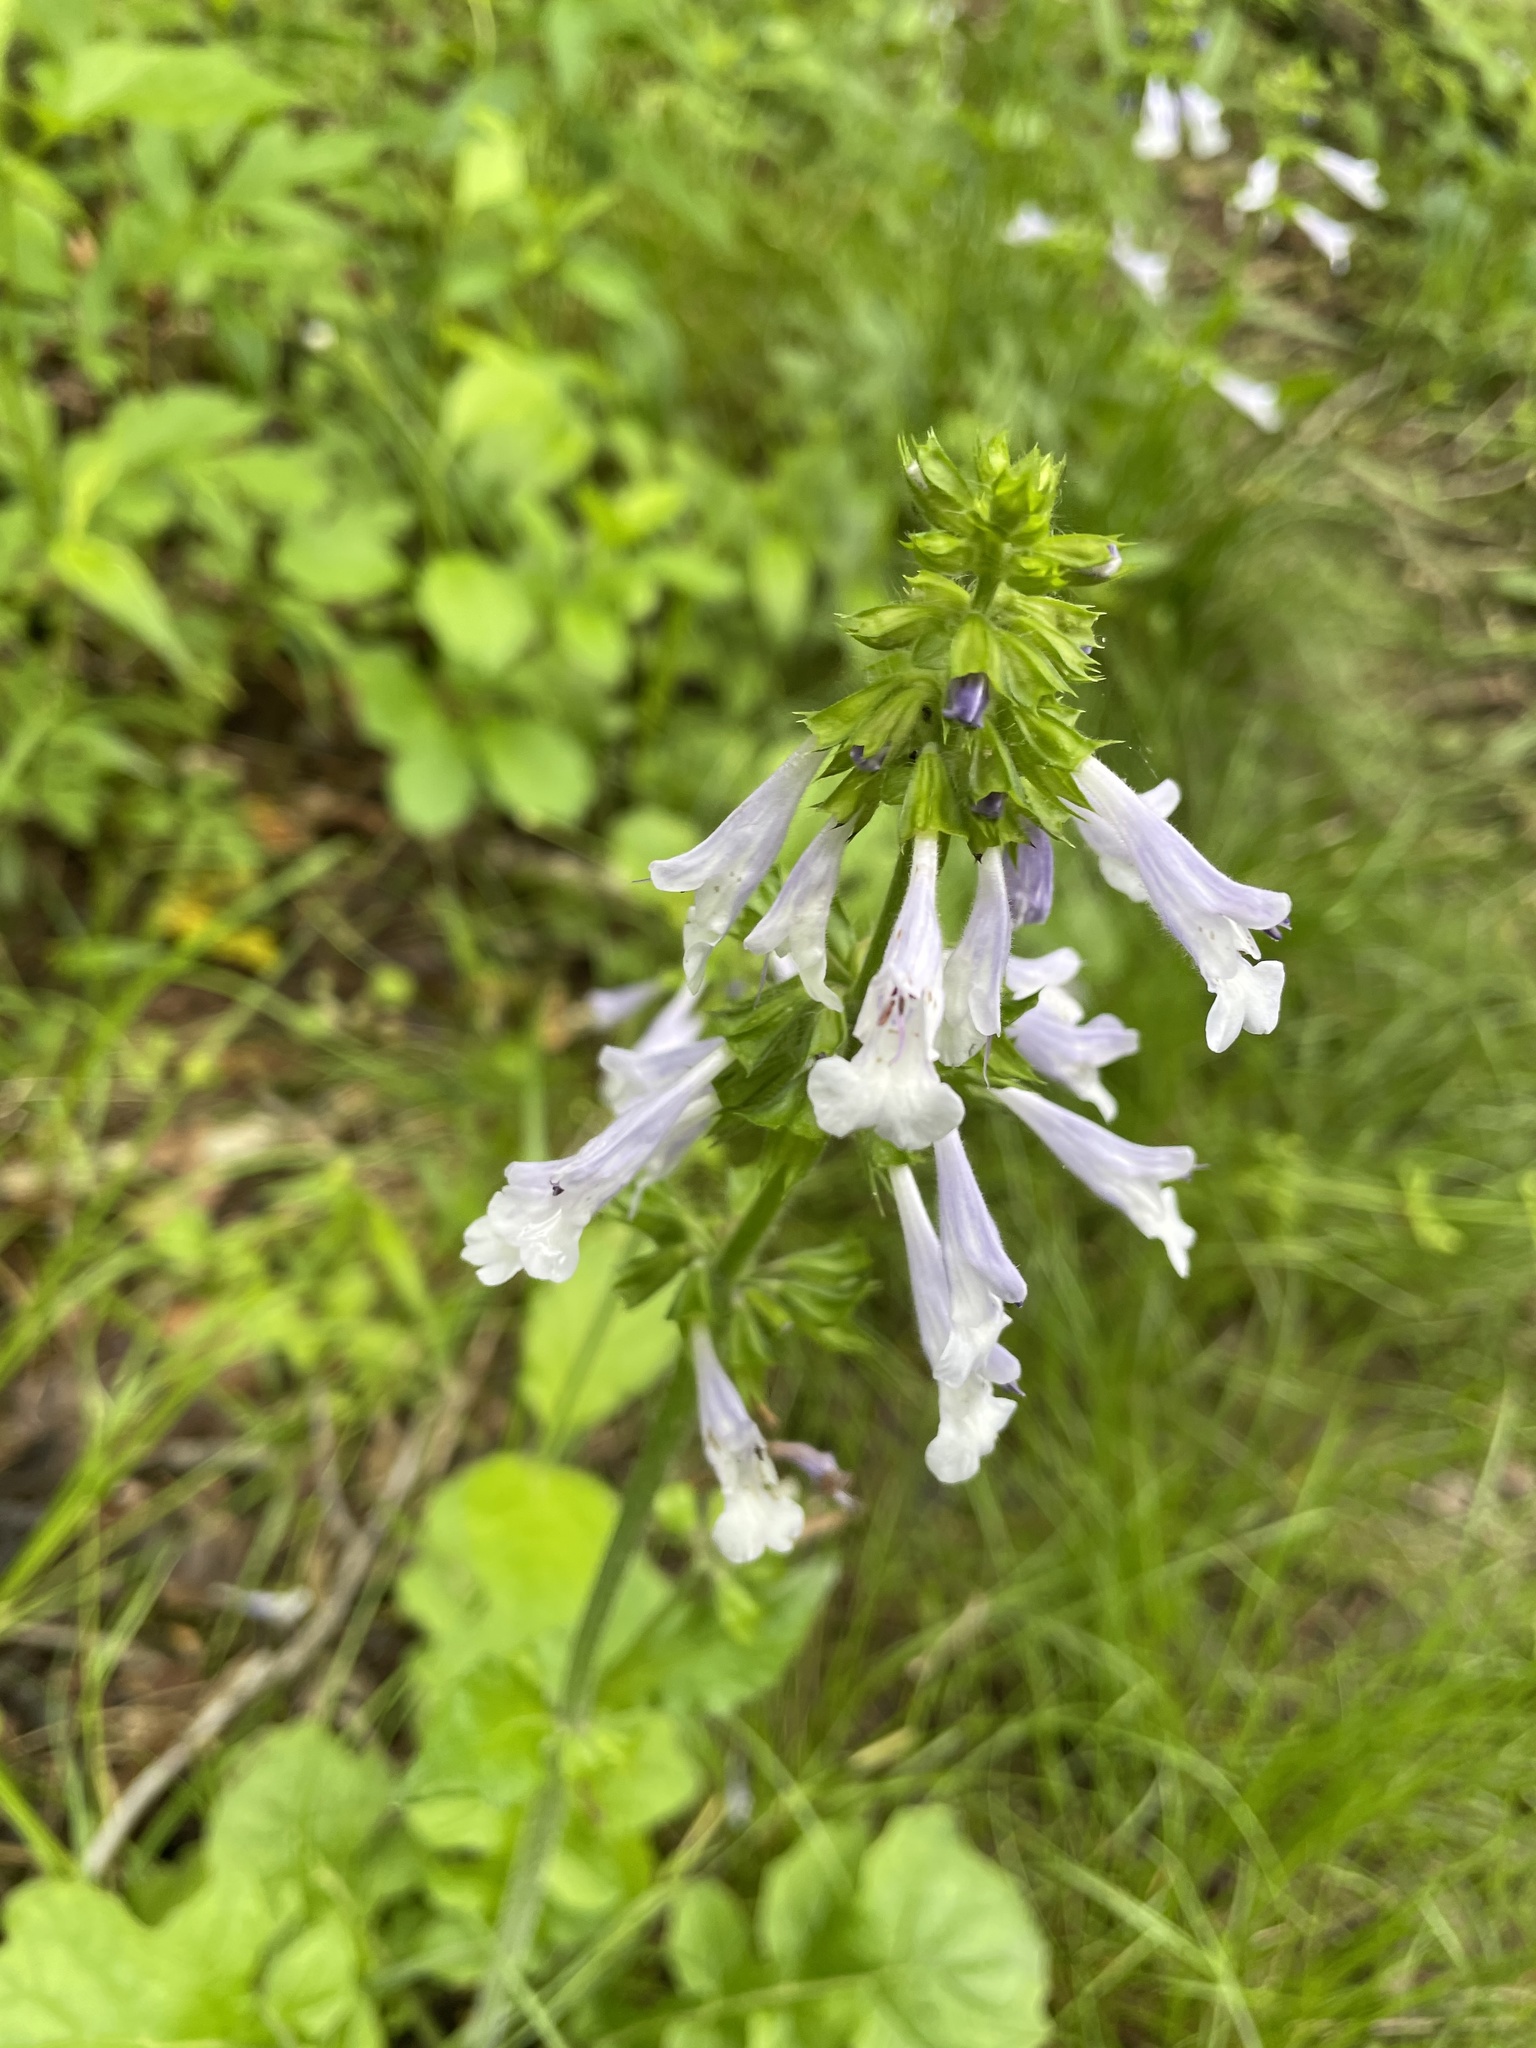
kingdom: Plantae
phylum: Tracheophyta
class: Magnoliopsida
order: Lamiales
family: Lamiaceae
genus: Salvia
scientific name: Salvia lyrata
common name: Cancerweed
